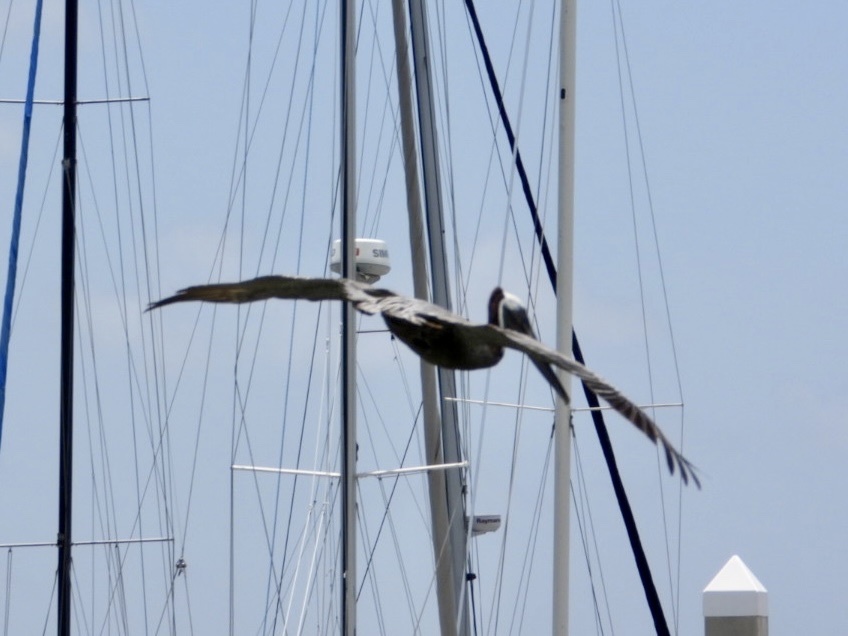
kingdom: Animalia
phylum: Chordata
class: Aves
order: Pelecaniformes
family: Pelecanidae
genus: Pelecanus
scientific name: Pelecanus occidentalis
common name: Brown pelican
